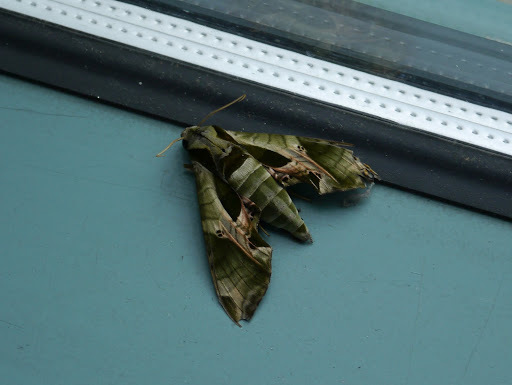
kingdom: Animalia
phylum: Arthropoda
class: Insecta
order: Lepidoptera
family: Sphingidae
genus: Eumorpha
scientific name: Eumorpha pandorus
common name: Pandora sphinx
